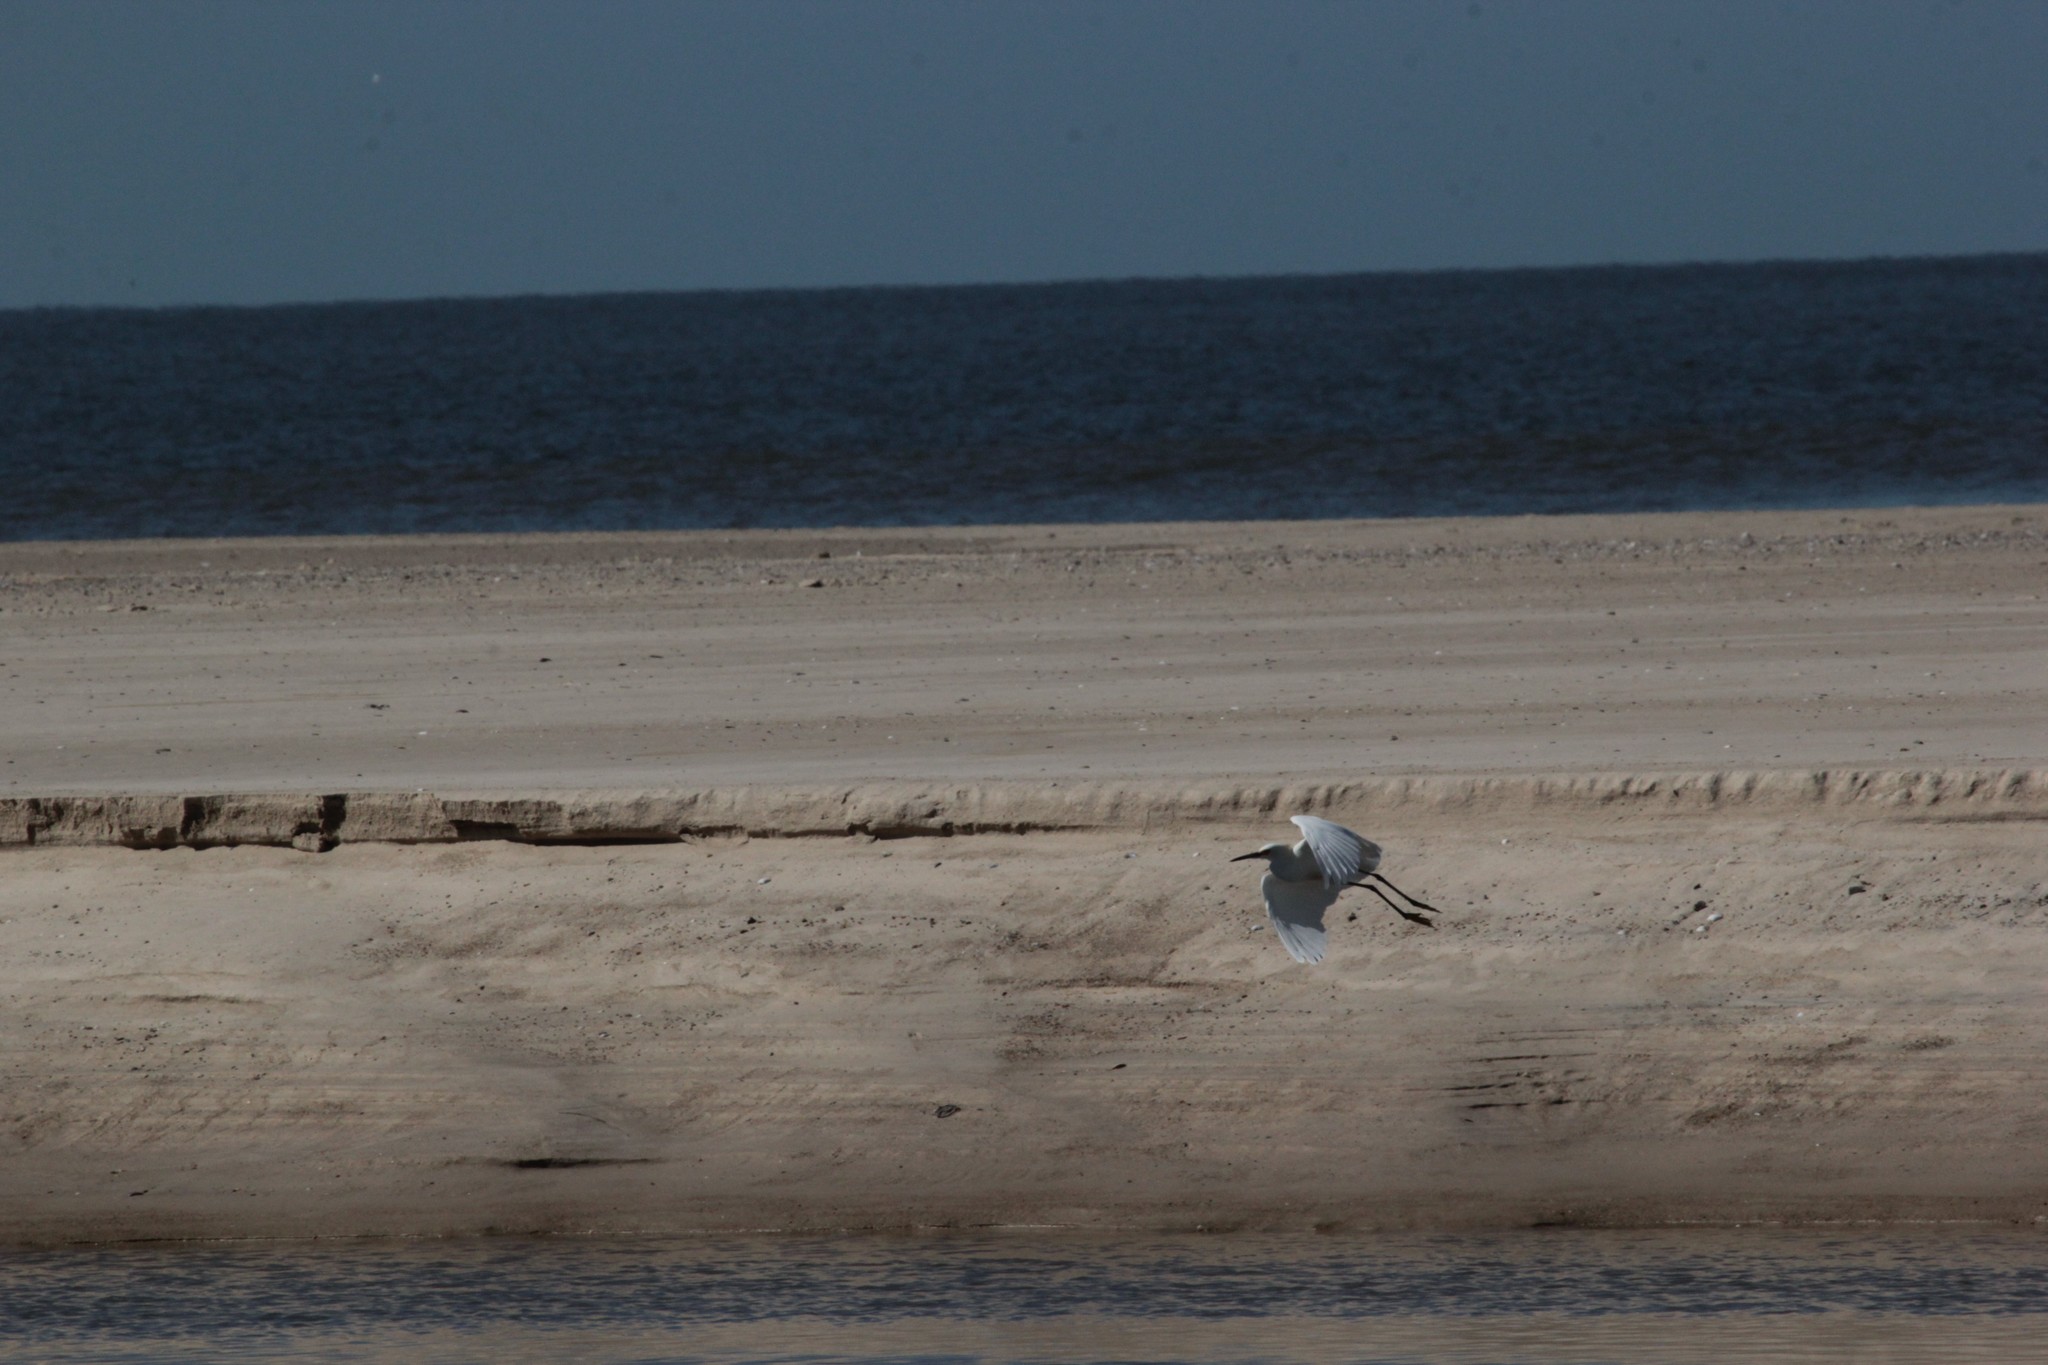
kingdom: Animalia
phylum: Chordata
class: Aves
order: Pelecaniformes
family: Ardeidae
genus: Egretta
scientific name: Egretta thula
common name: Snowy egret
